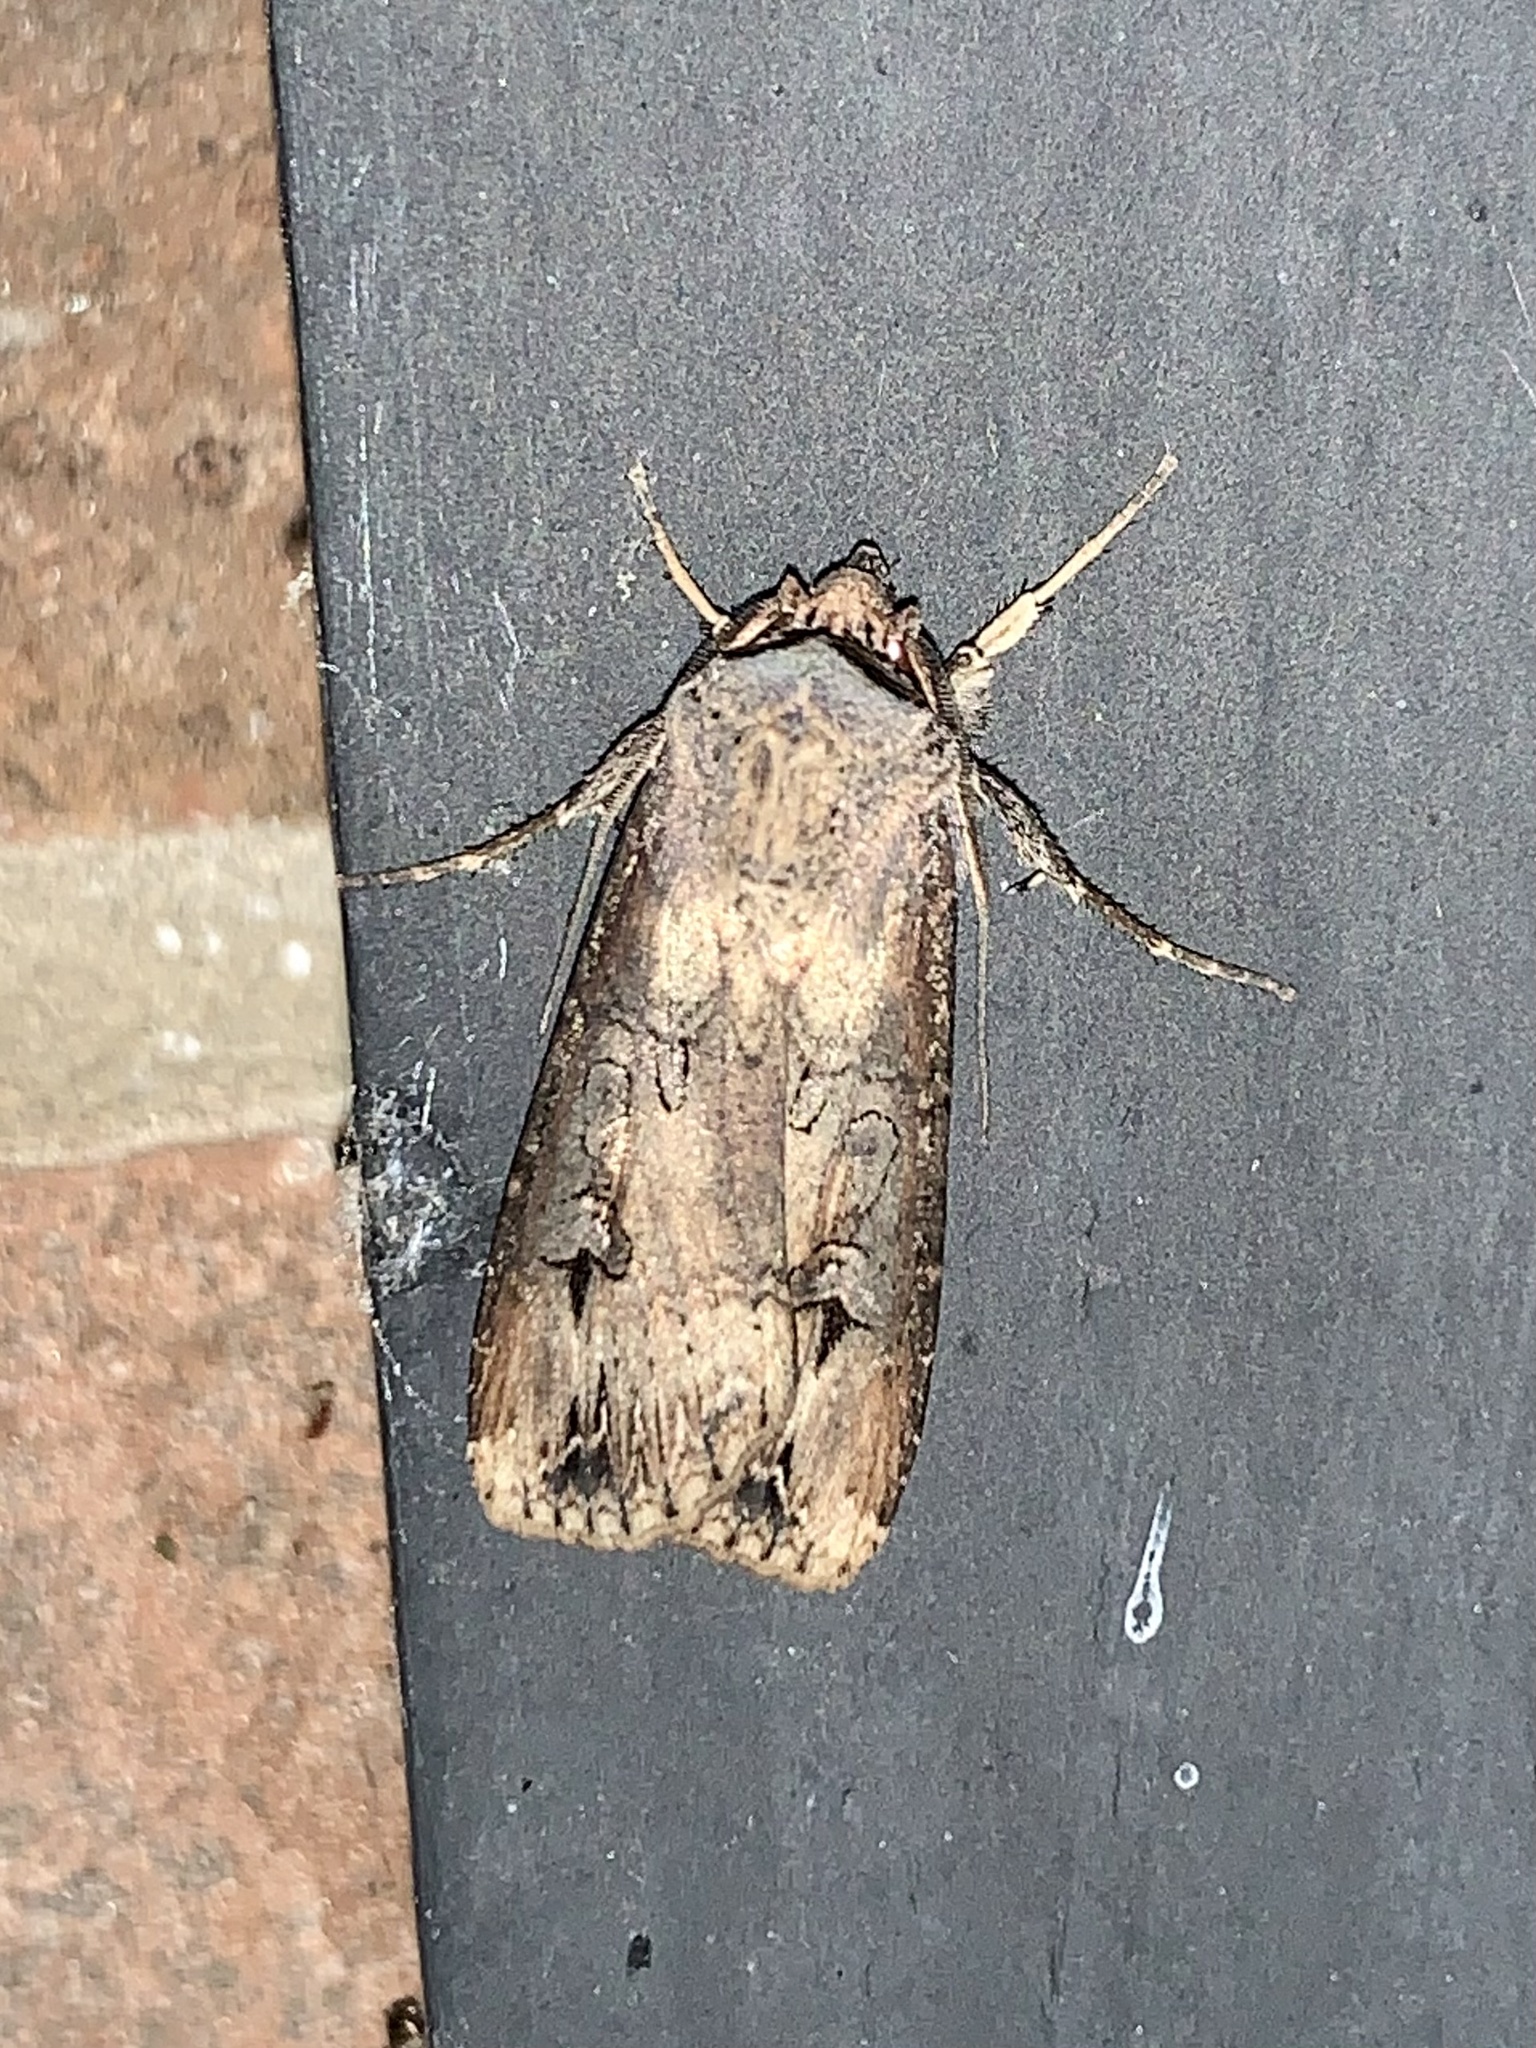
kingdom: Animalia
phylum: Arthropoda
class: Insecta
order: Lepidoptera
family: Noctuidae
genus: Agrotis
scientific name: Agrotis ipsilon
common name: Dark sword-grass
